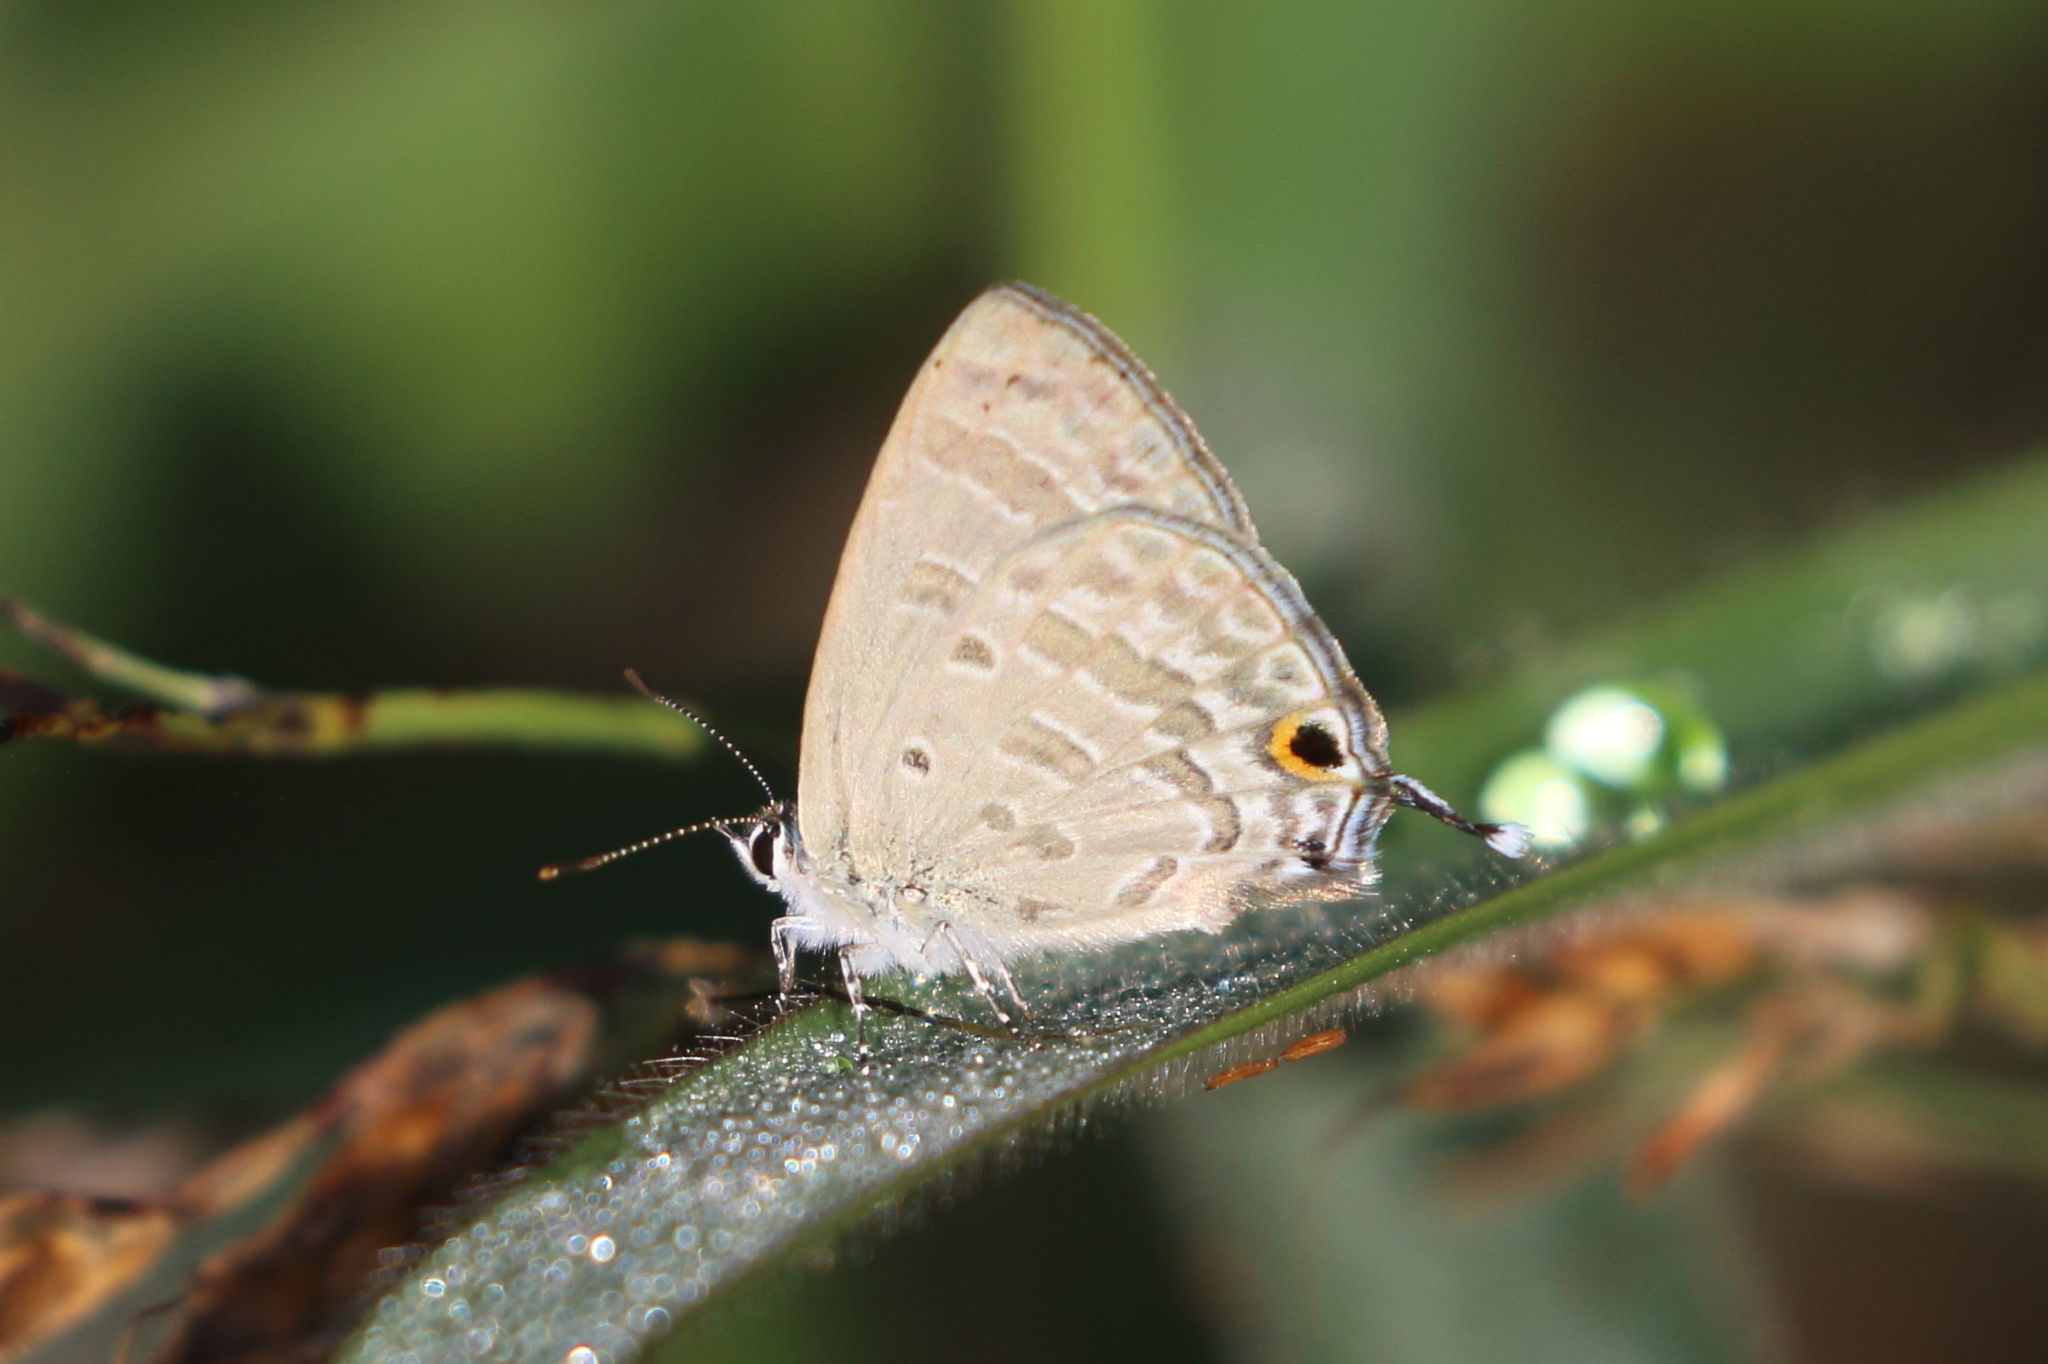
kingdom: Animalia
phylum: Arthropoda
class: Insecta
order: Lepidoptera
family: Lycaenidae
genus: Catochrysops
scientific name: Catochrysops panormus
